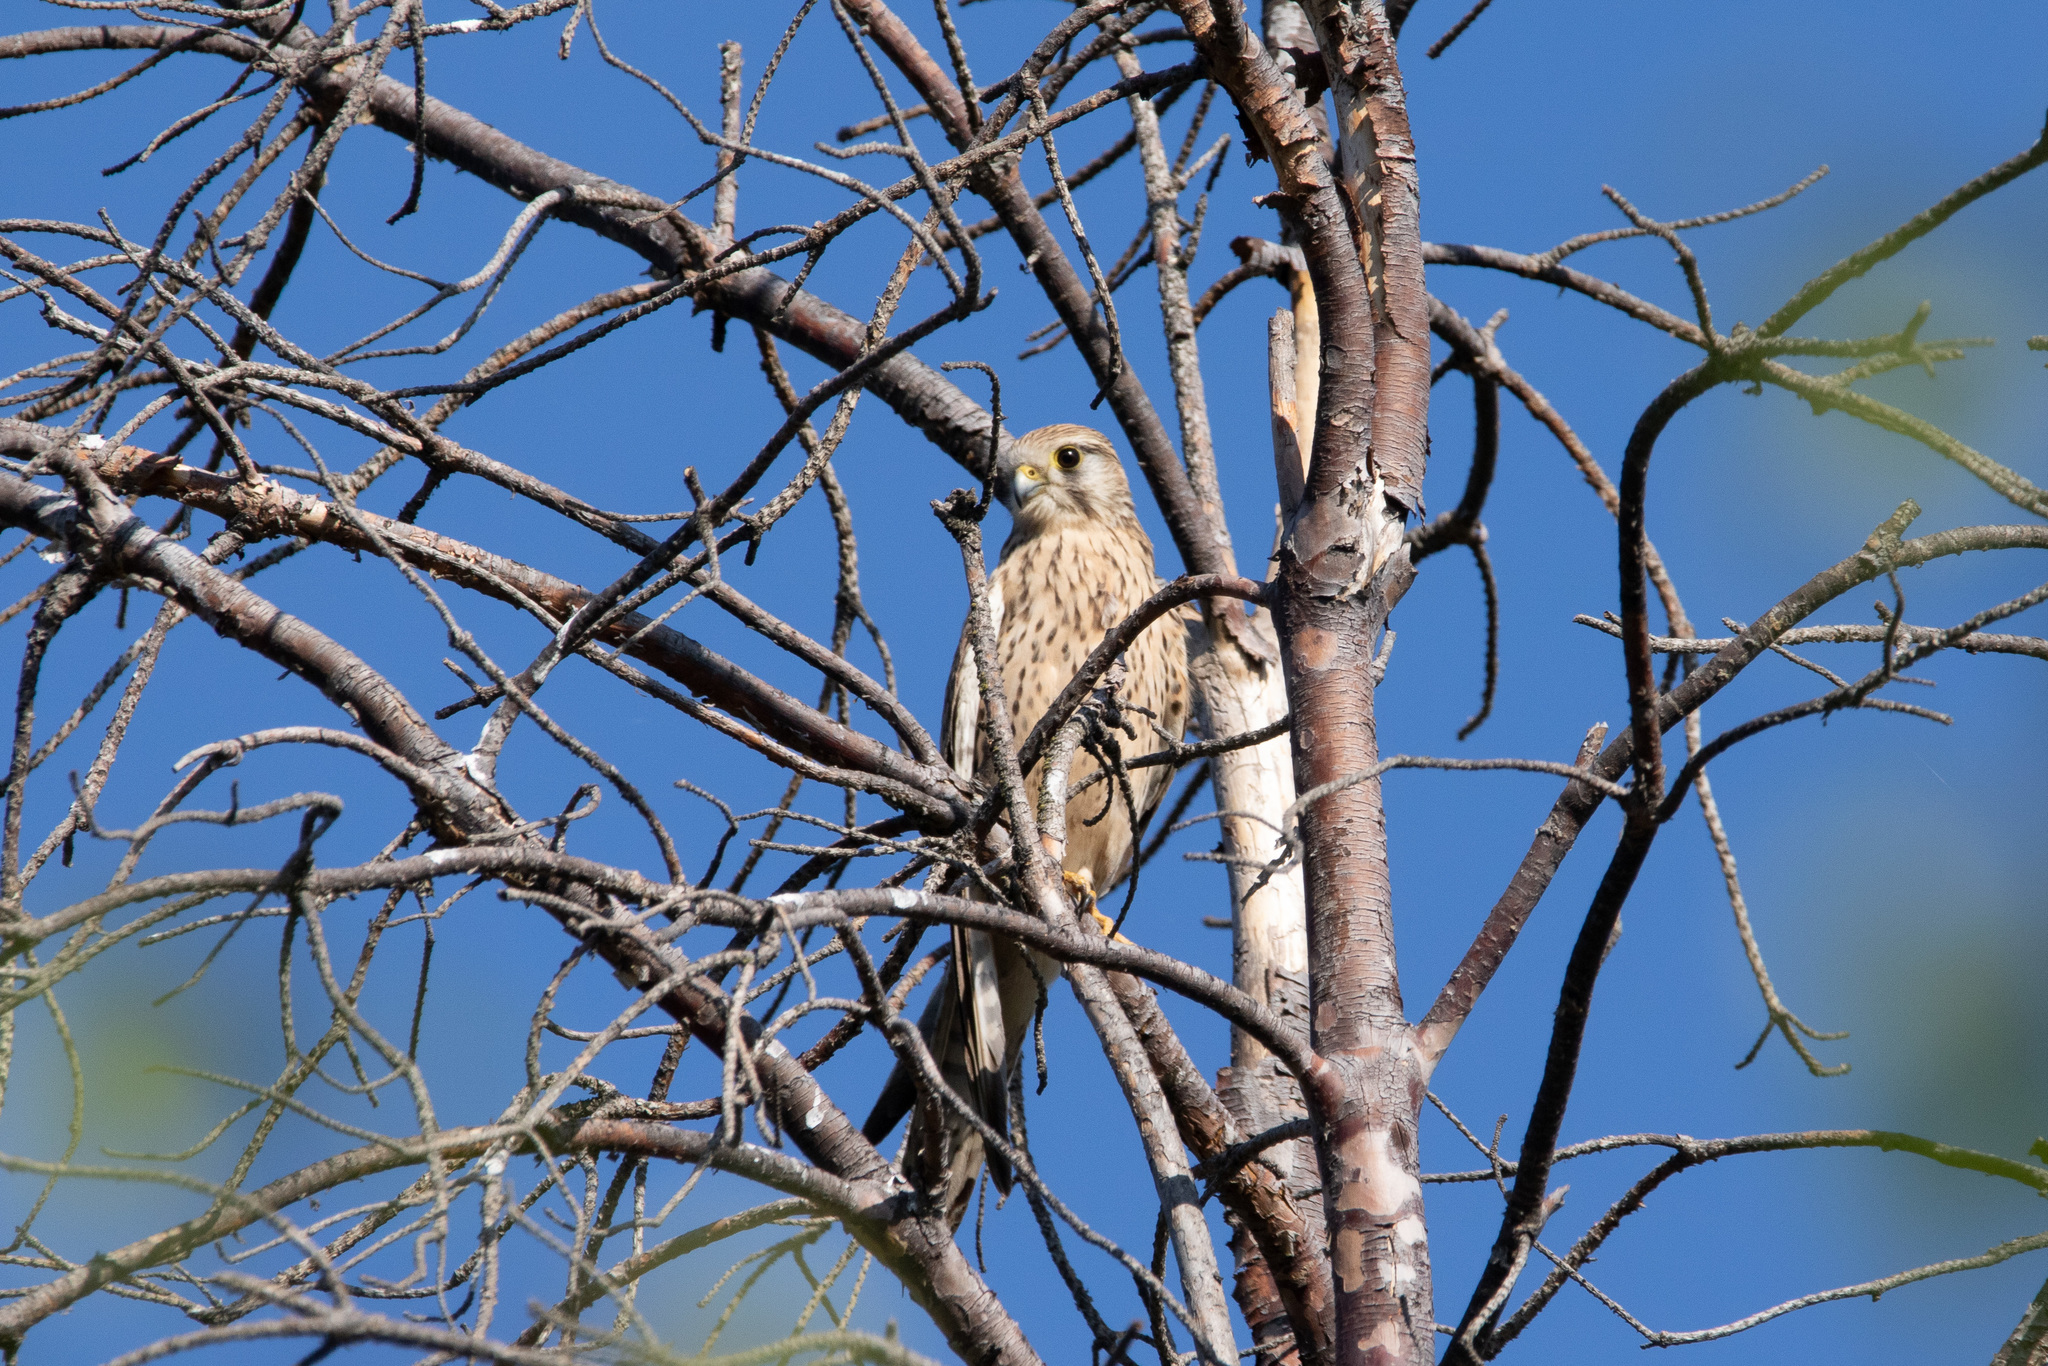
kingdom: Animalia
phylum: Chordata
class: Aves
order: Falconiformes
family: Falconidae
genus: Falco
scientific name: Falco tinnunculus
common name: Common kestrel
